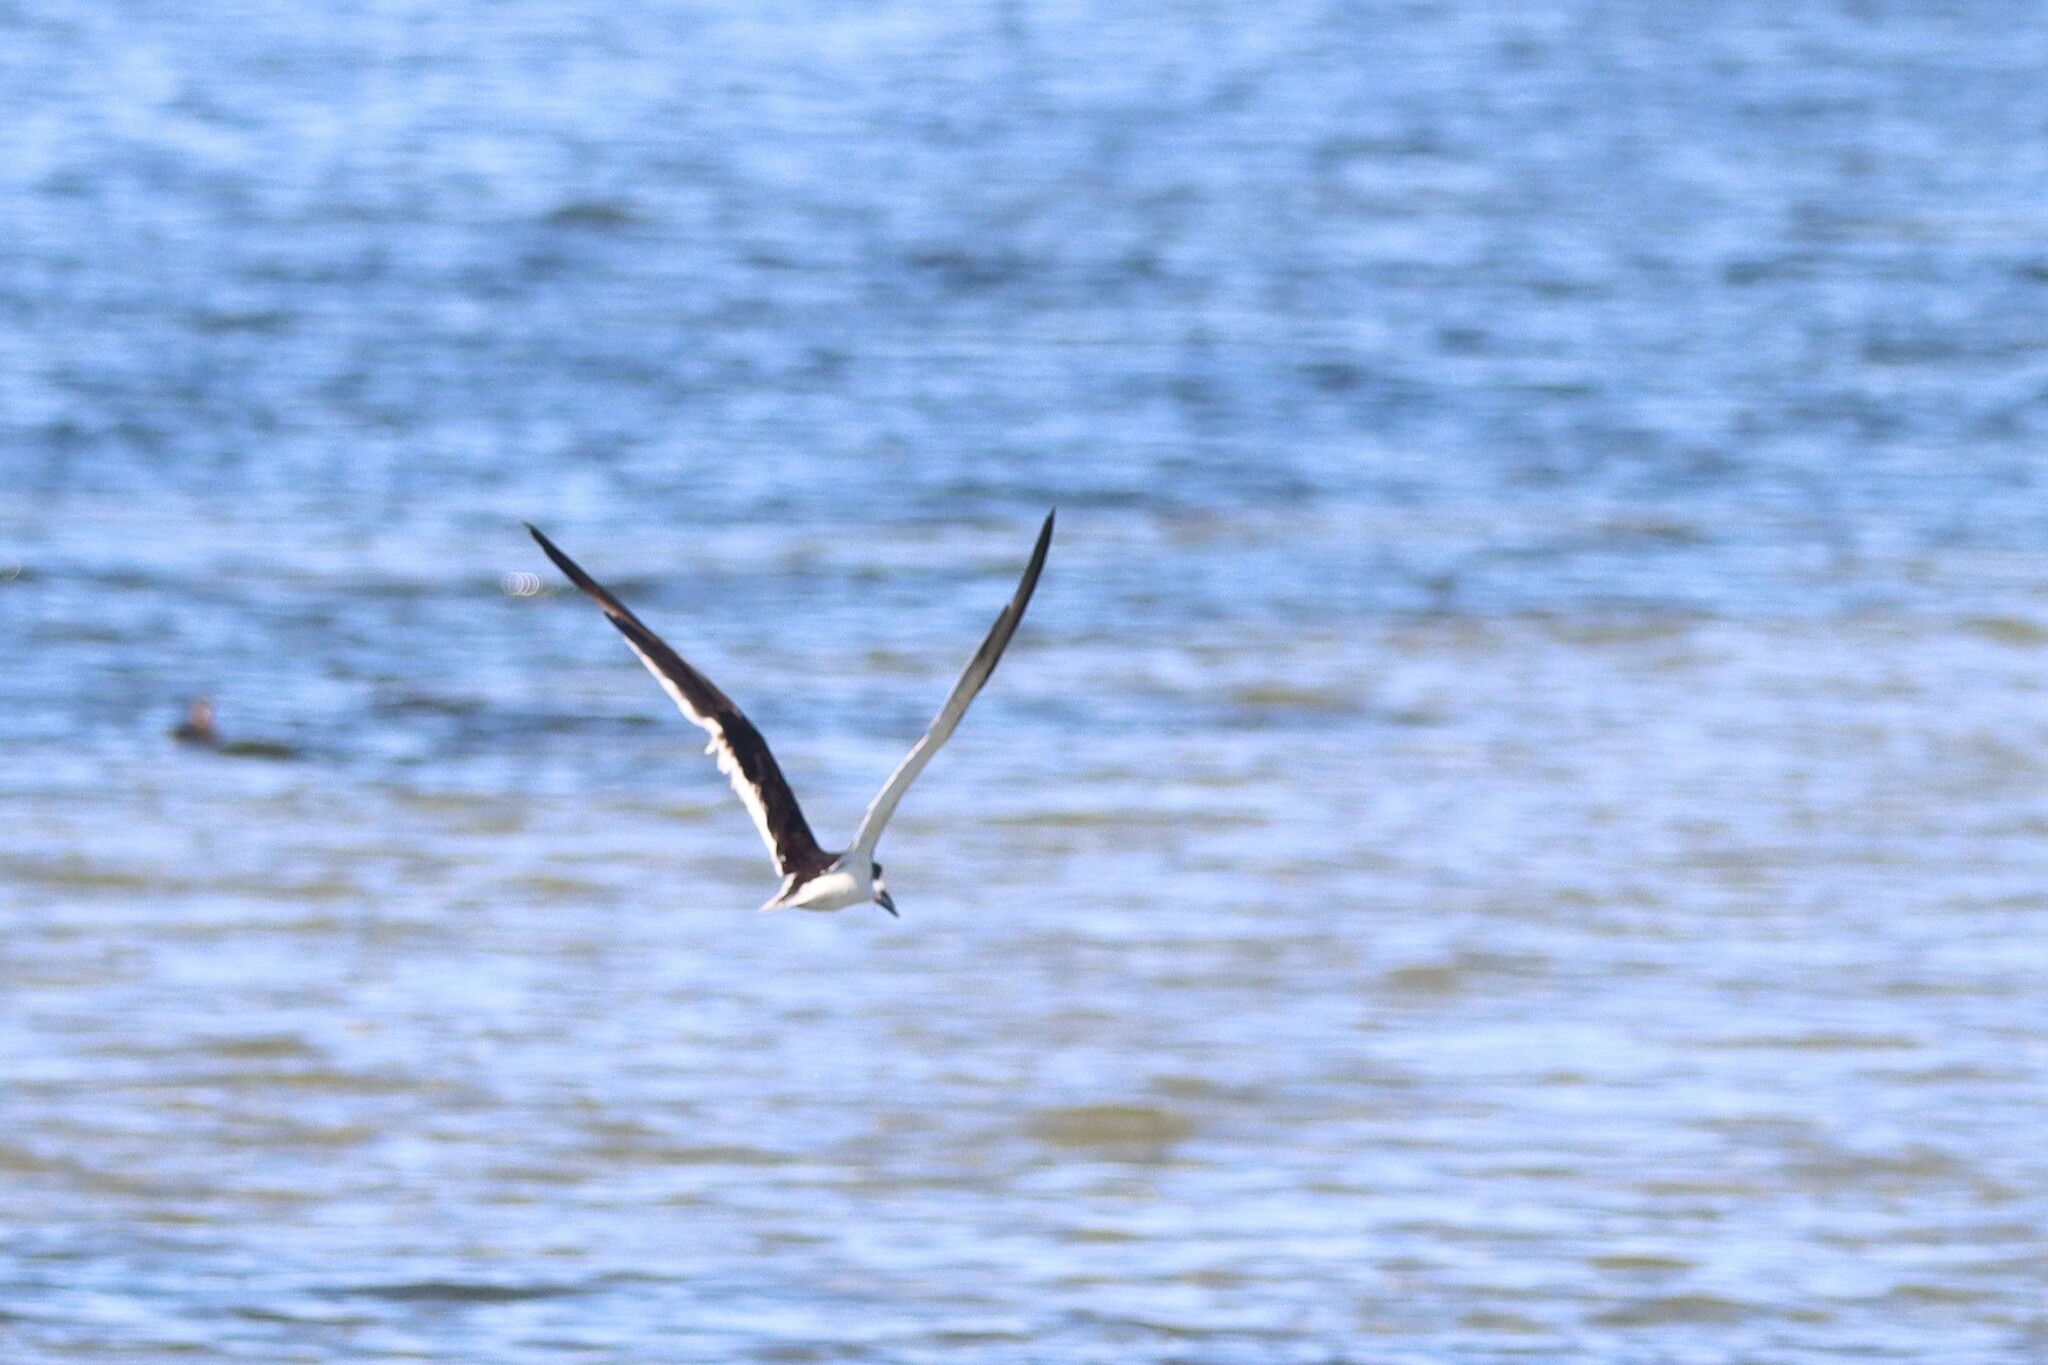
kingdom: Animalia
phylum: Chordata
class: Aves
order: Charadriiformes
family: Laridae
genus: Rynchops
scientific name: Rynchops niger
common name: Black skimmer
